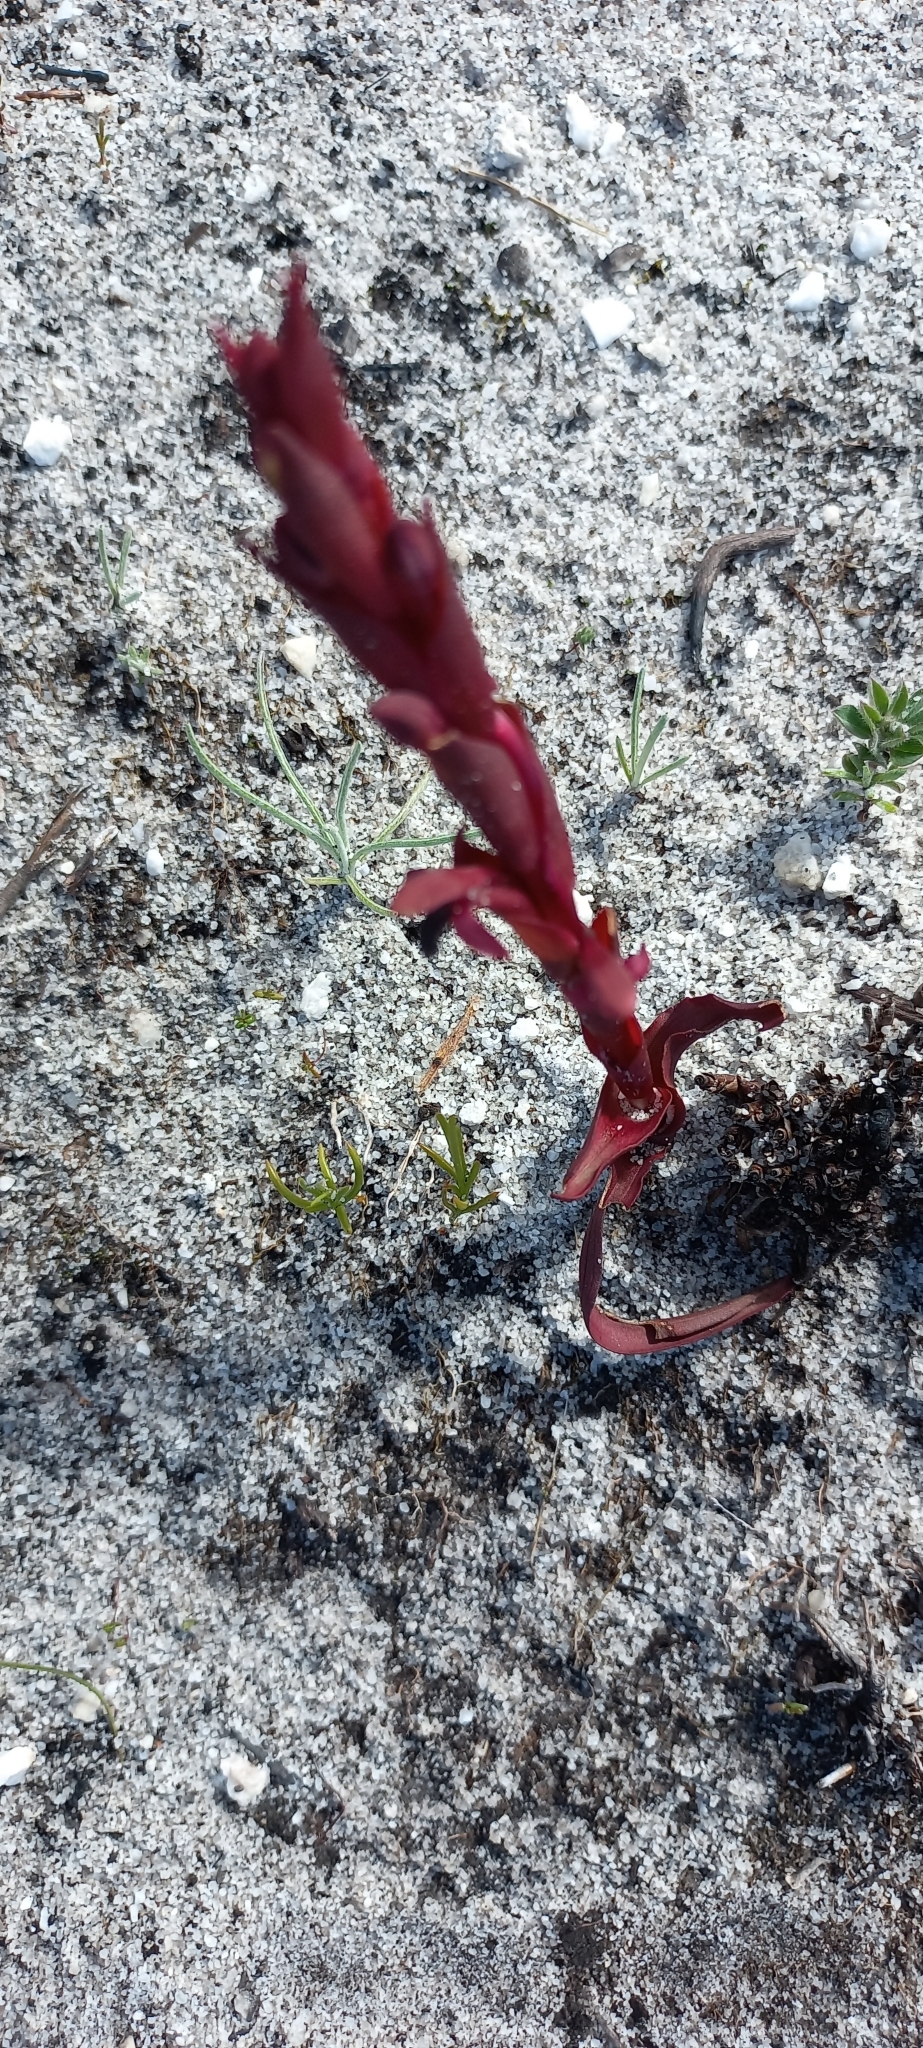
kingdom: Plantae
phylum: Tracheophyta
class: Liliopsida
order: Asparagales
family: Orchidaceae
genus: Disa
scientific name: Disa atrorubens
